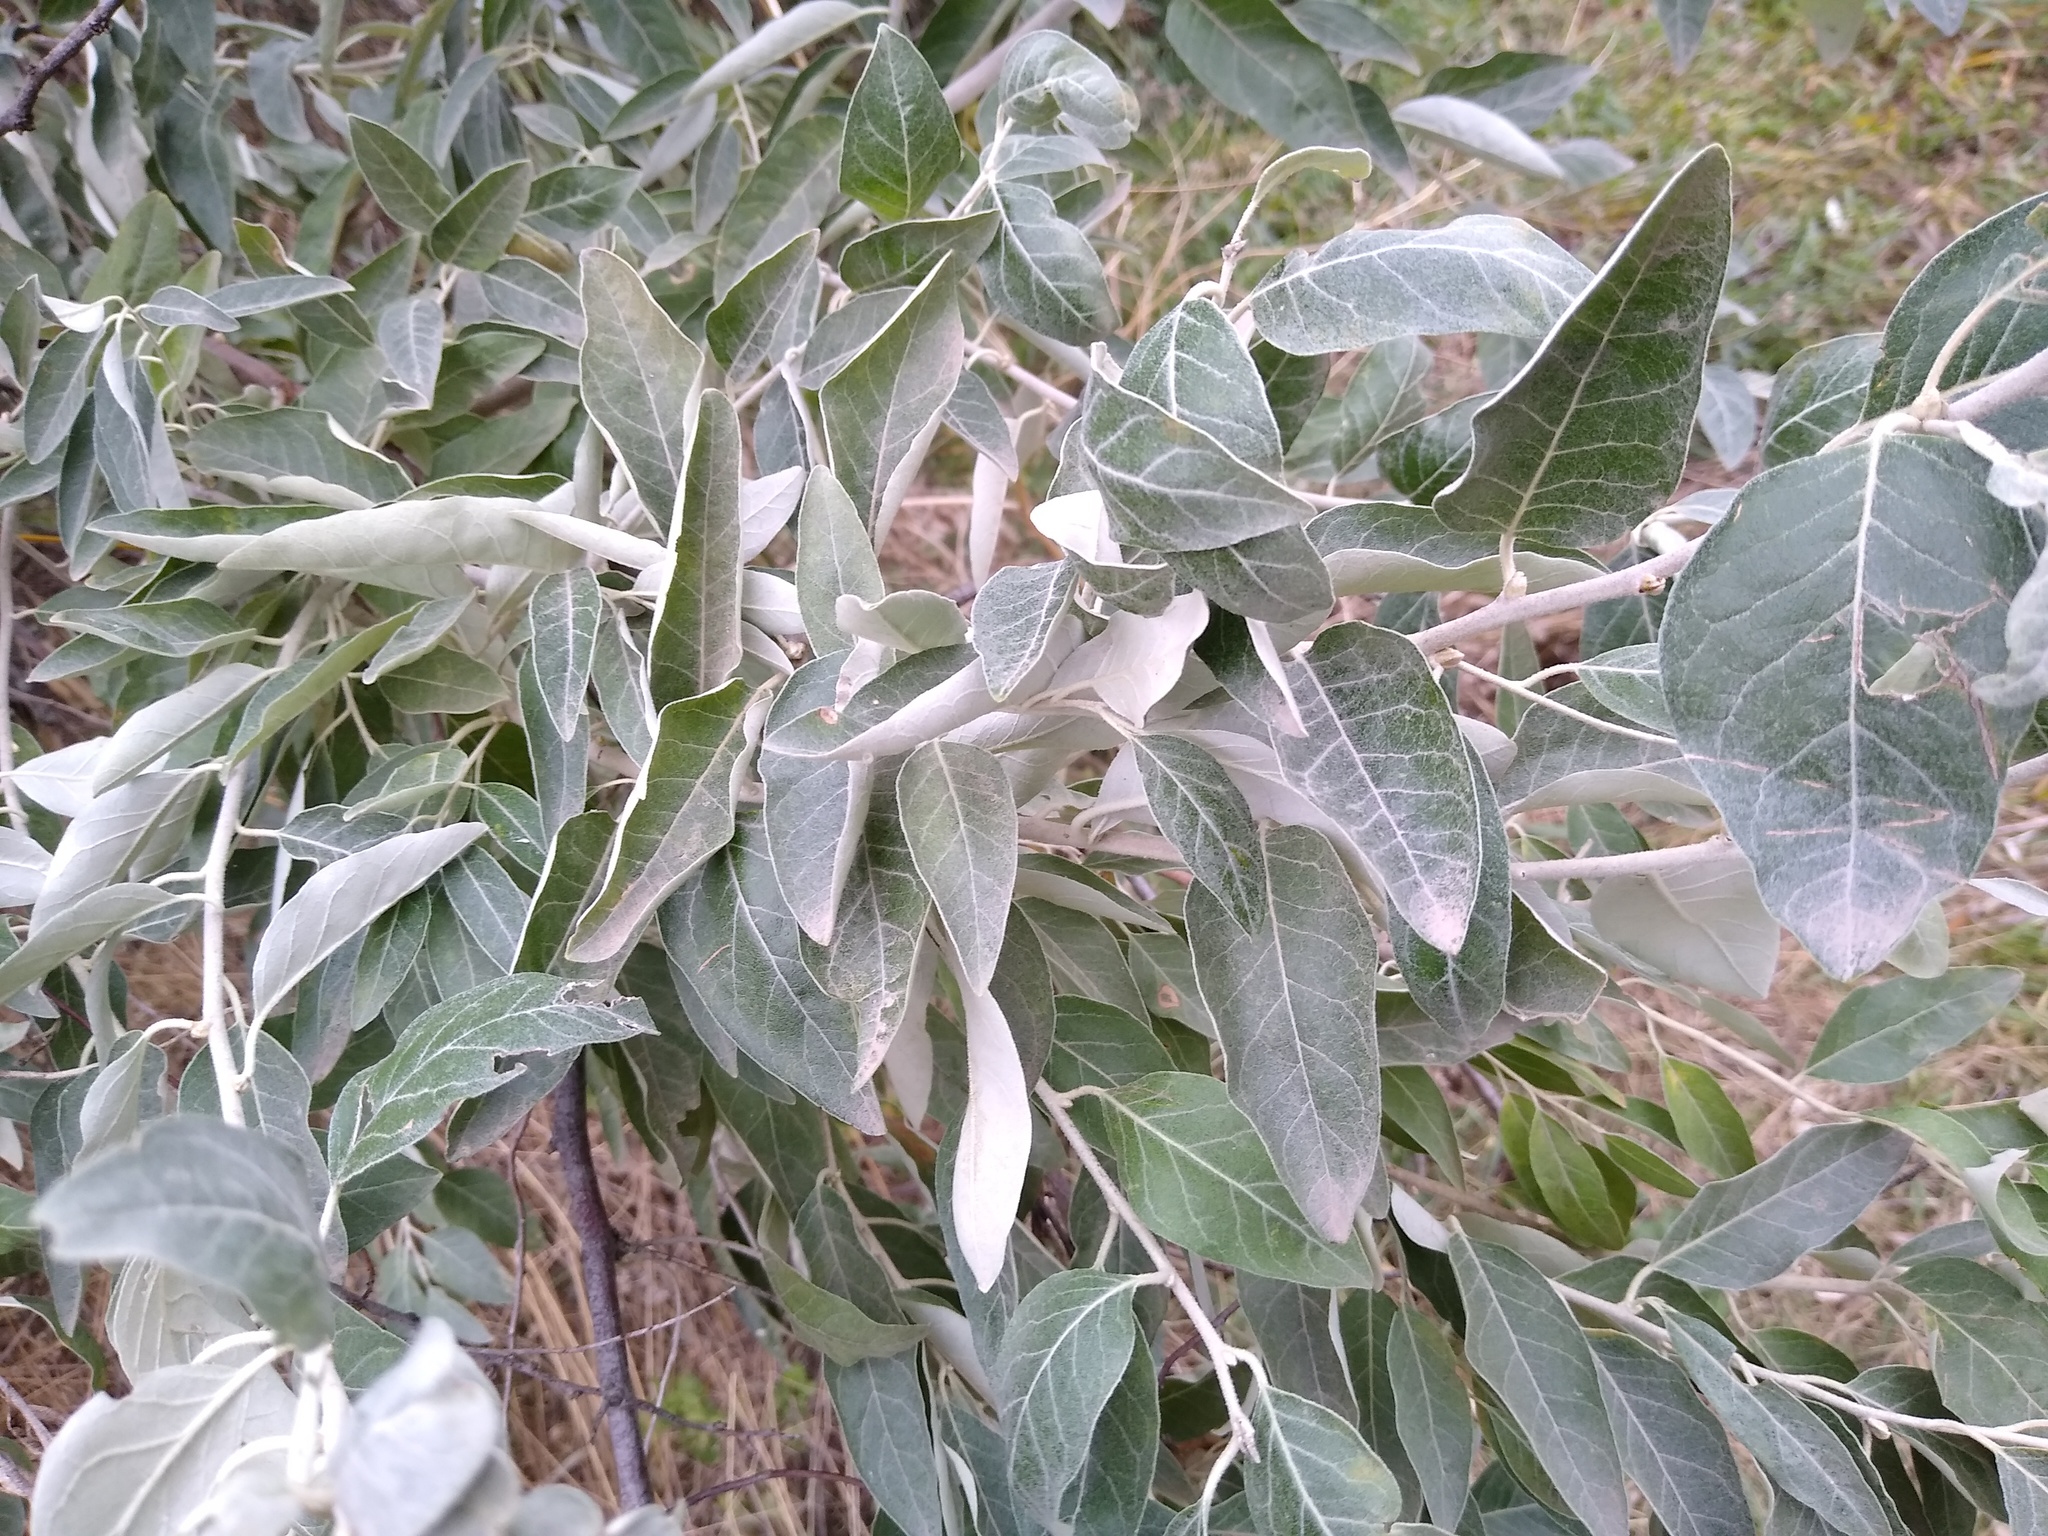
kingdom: Plantae
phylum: Tracheophyta
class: Magnoliopsida
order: Rosales
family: Elaeagnaceae
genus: Elaeagnus
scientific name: Elaeagnus angustifolia
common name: Russian olive
